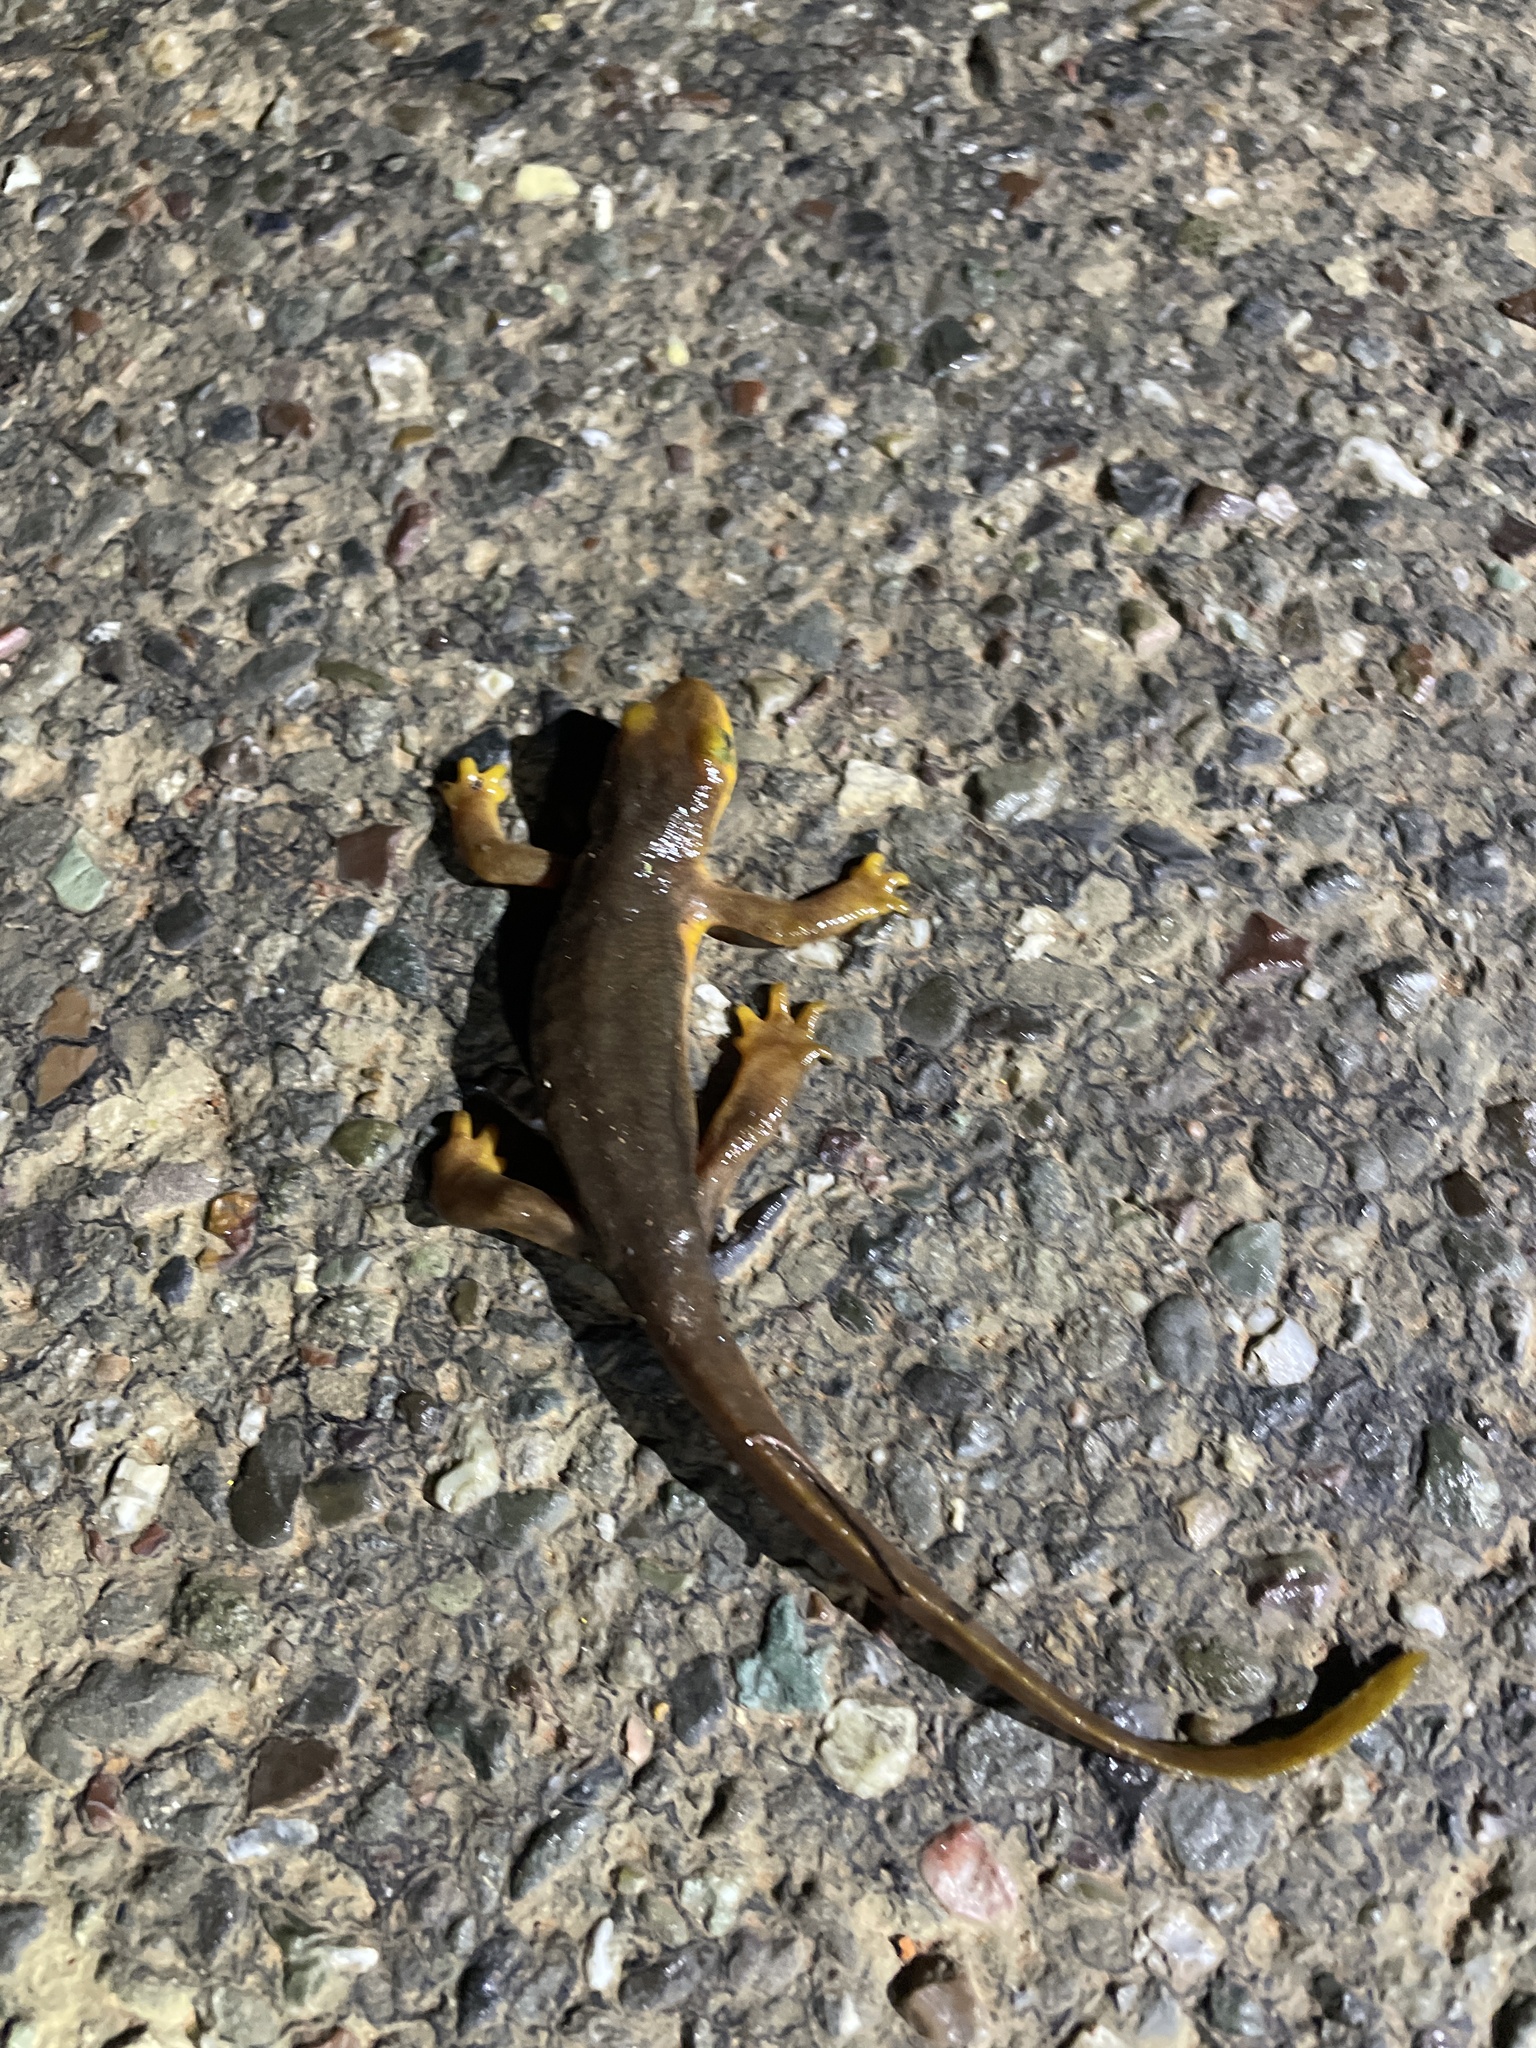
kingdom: Animalia
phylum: Chordata
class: Amphibia
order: Caudata
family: Salamandridae
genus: Taricha
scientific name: Taricha torosa
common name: California newt
